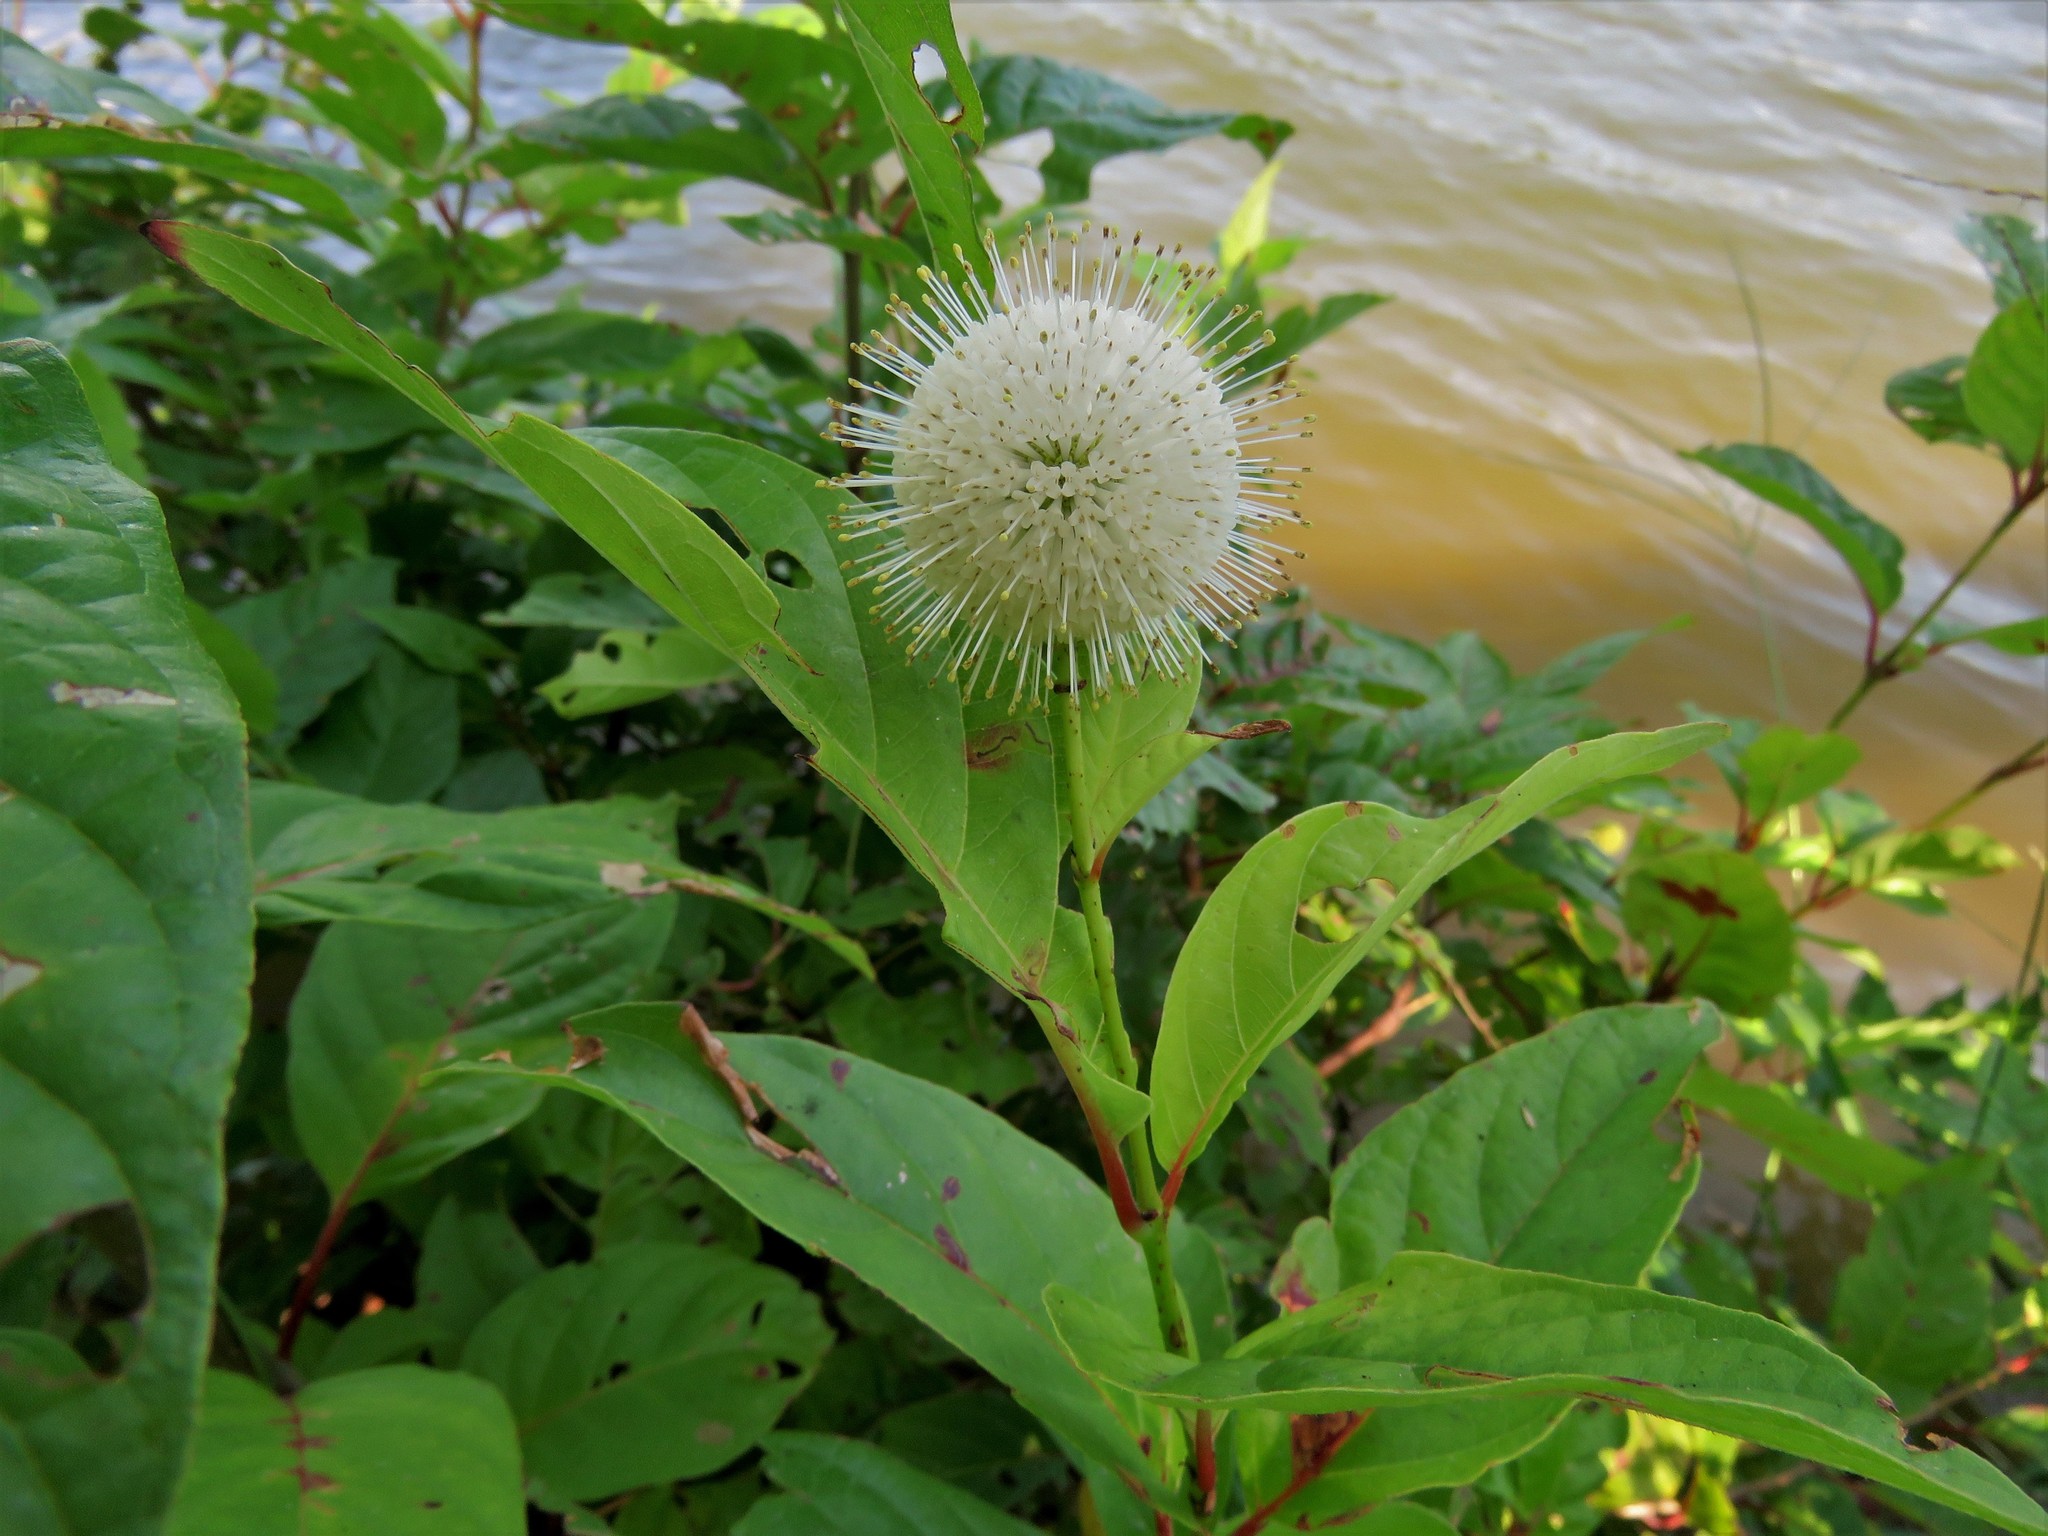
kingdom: Plantae
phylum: Tracheophyta
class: Magnoliopsida
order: Gentianales
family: Rubiaceae
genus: Cephalanthus
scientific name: Cephalanthus occidentalis
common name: Button-willow
